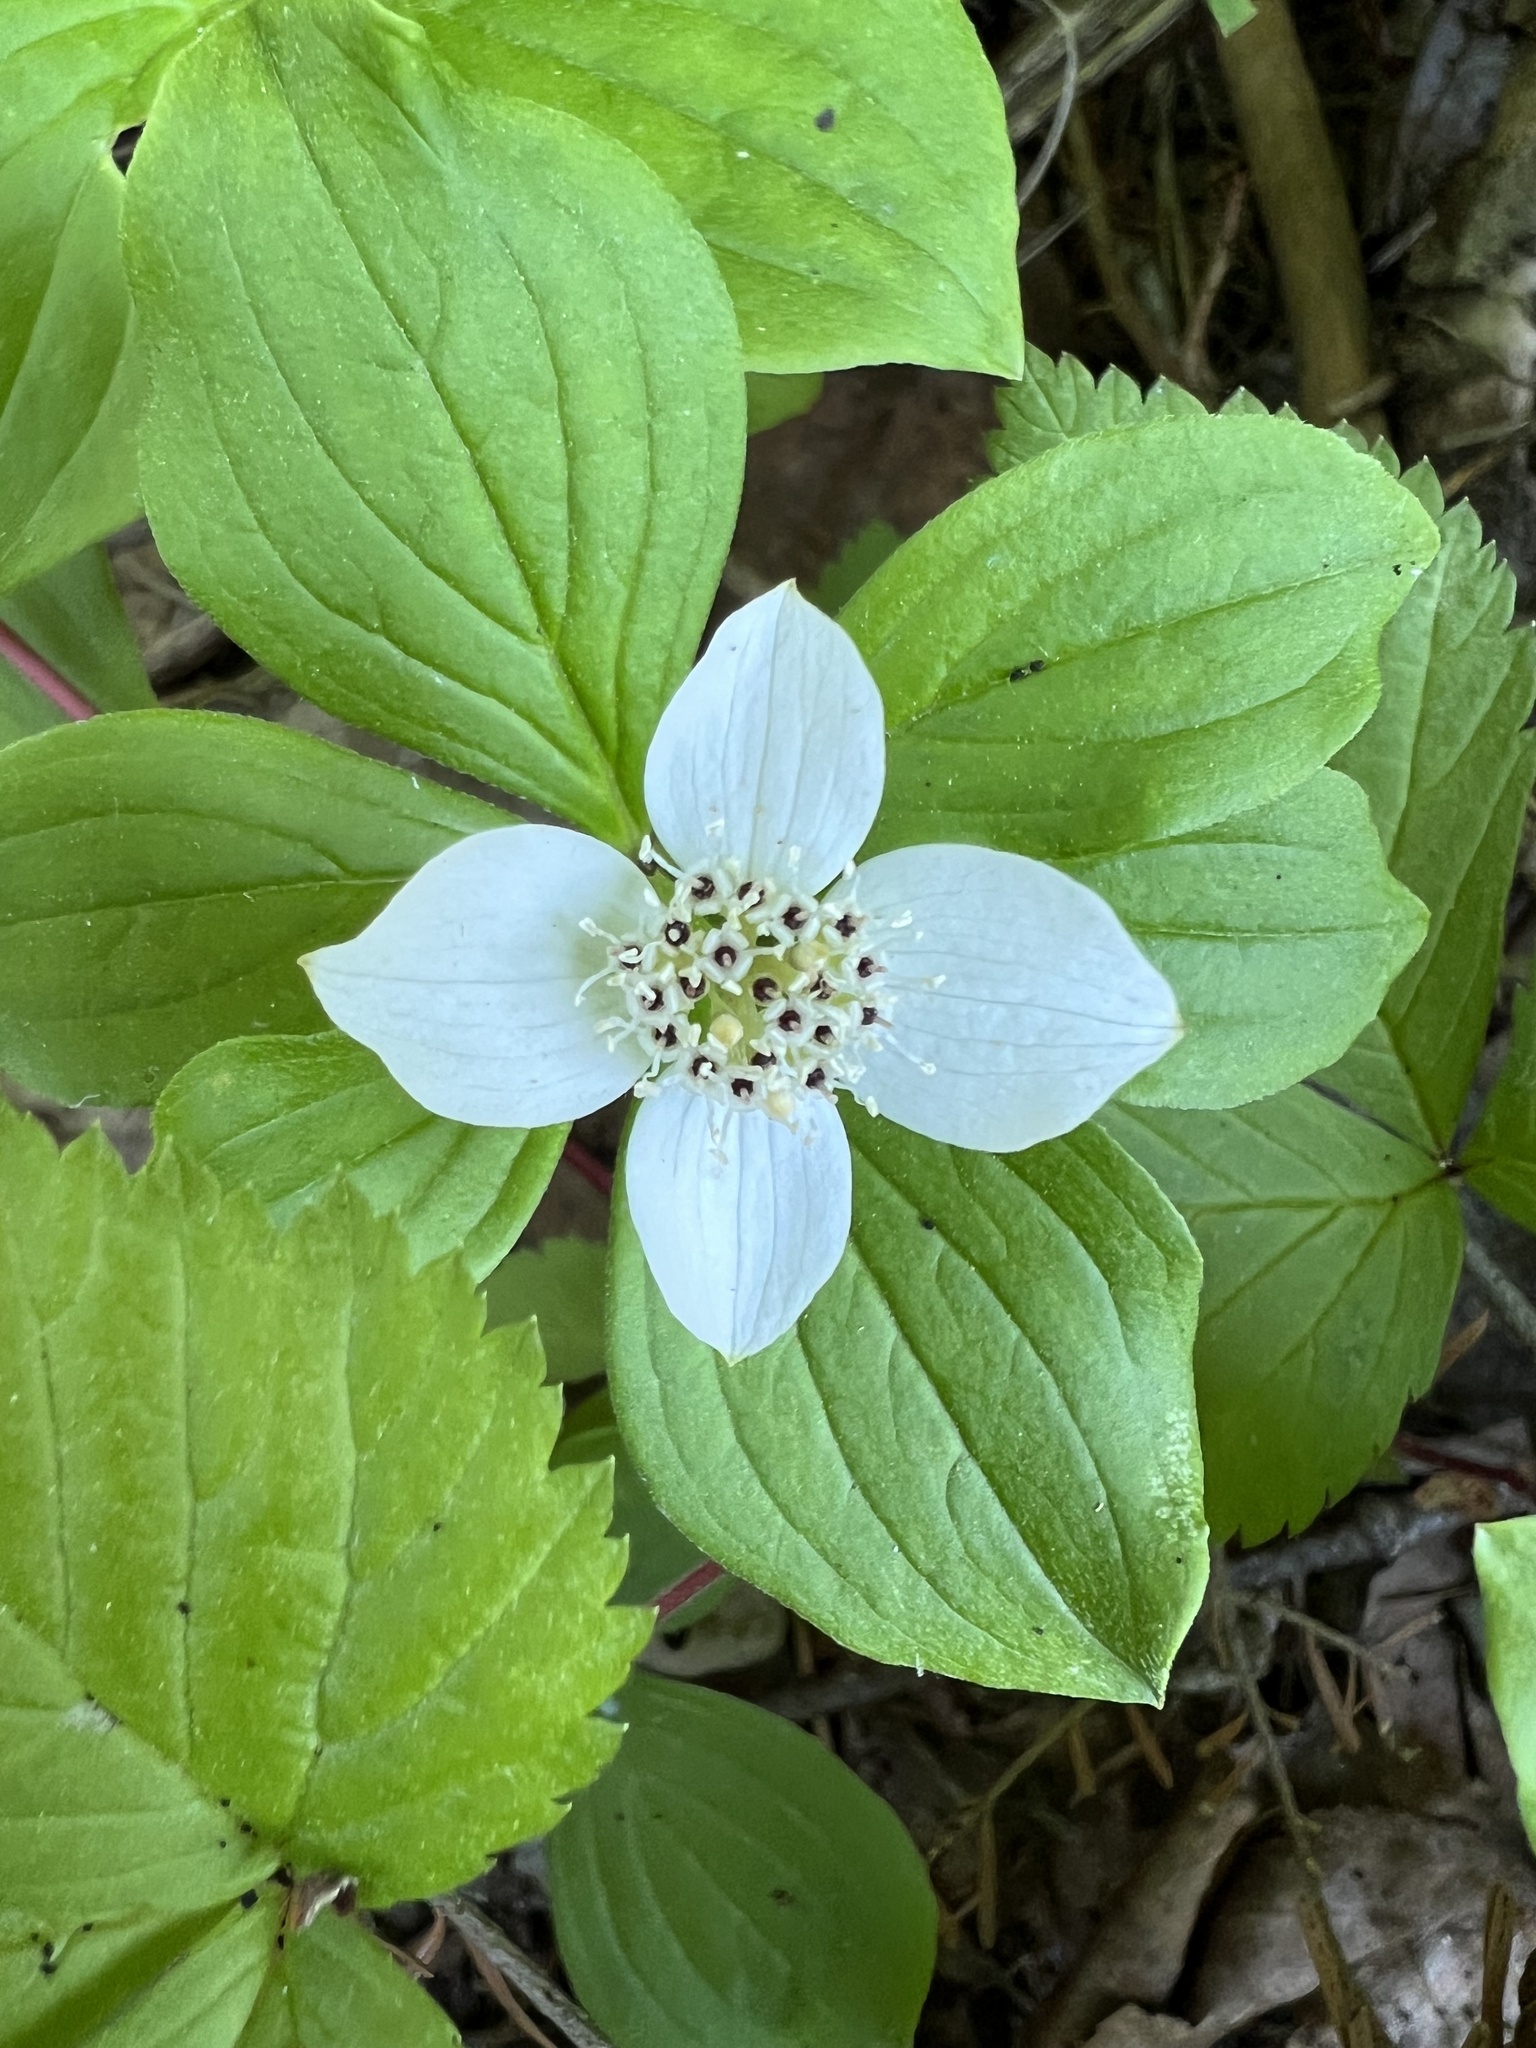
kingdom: Plantae
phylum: Tracheophyta
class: Magnoliopsida
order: Cornales
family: Cornaceae
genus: Cornus
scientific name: Cornus canadensis
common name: Creeping dogwood
